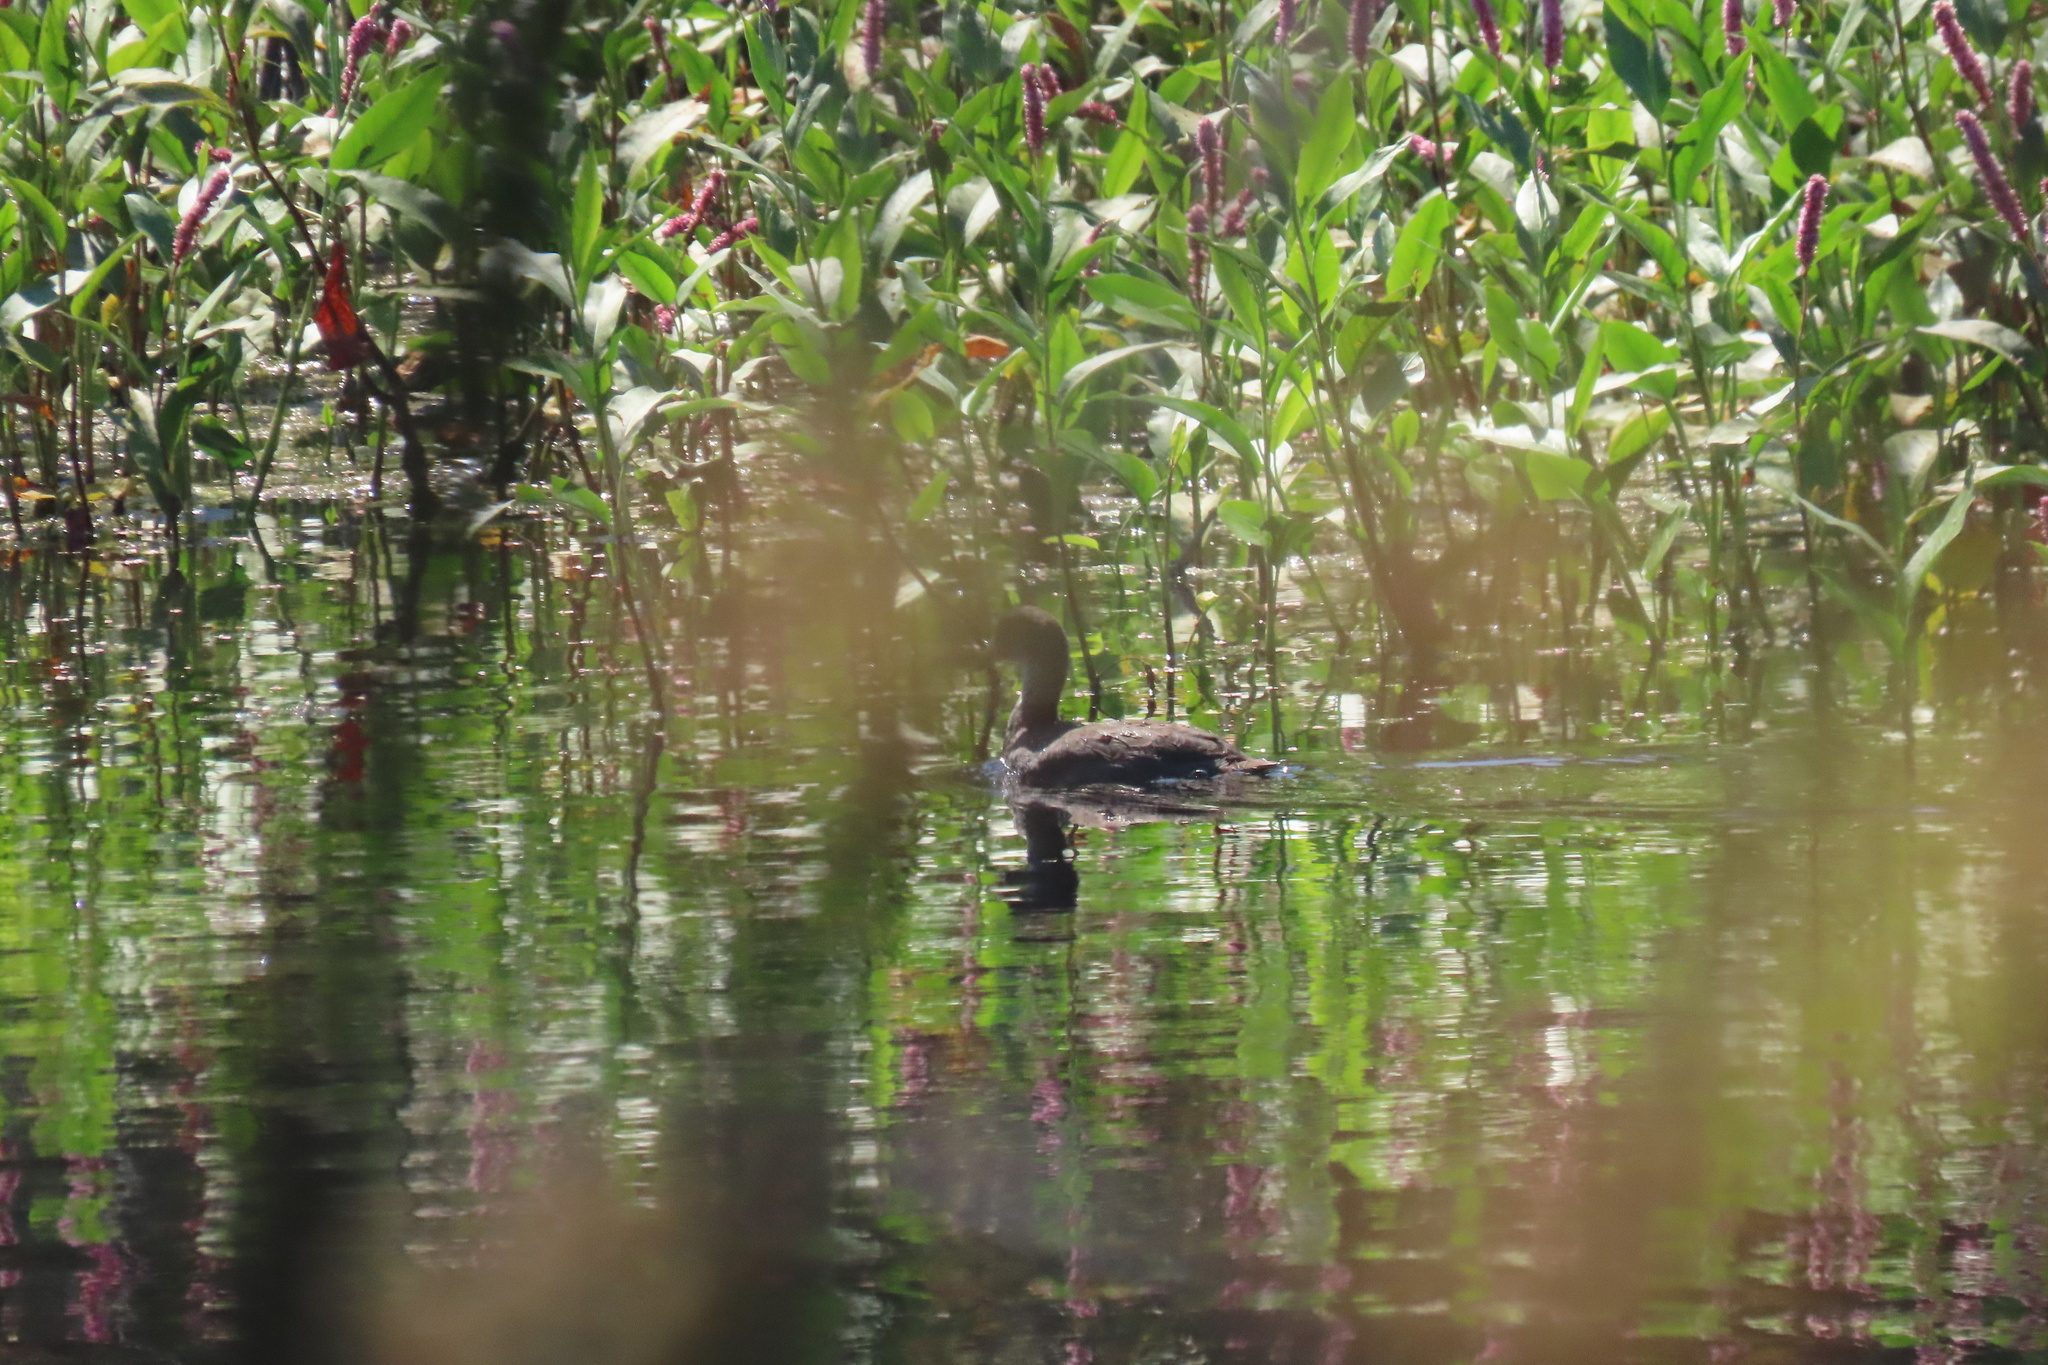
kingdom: Animalia
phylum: Chordata
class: Aves
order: Gruiformes
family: Rallidae
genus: Fulica
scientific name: Fulica americana
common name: American coot
